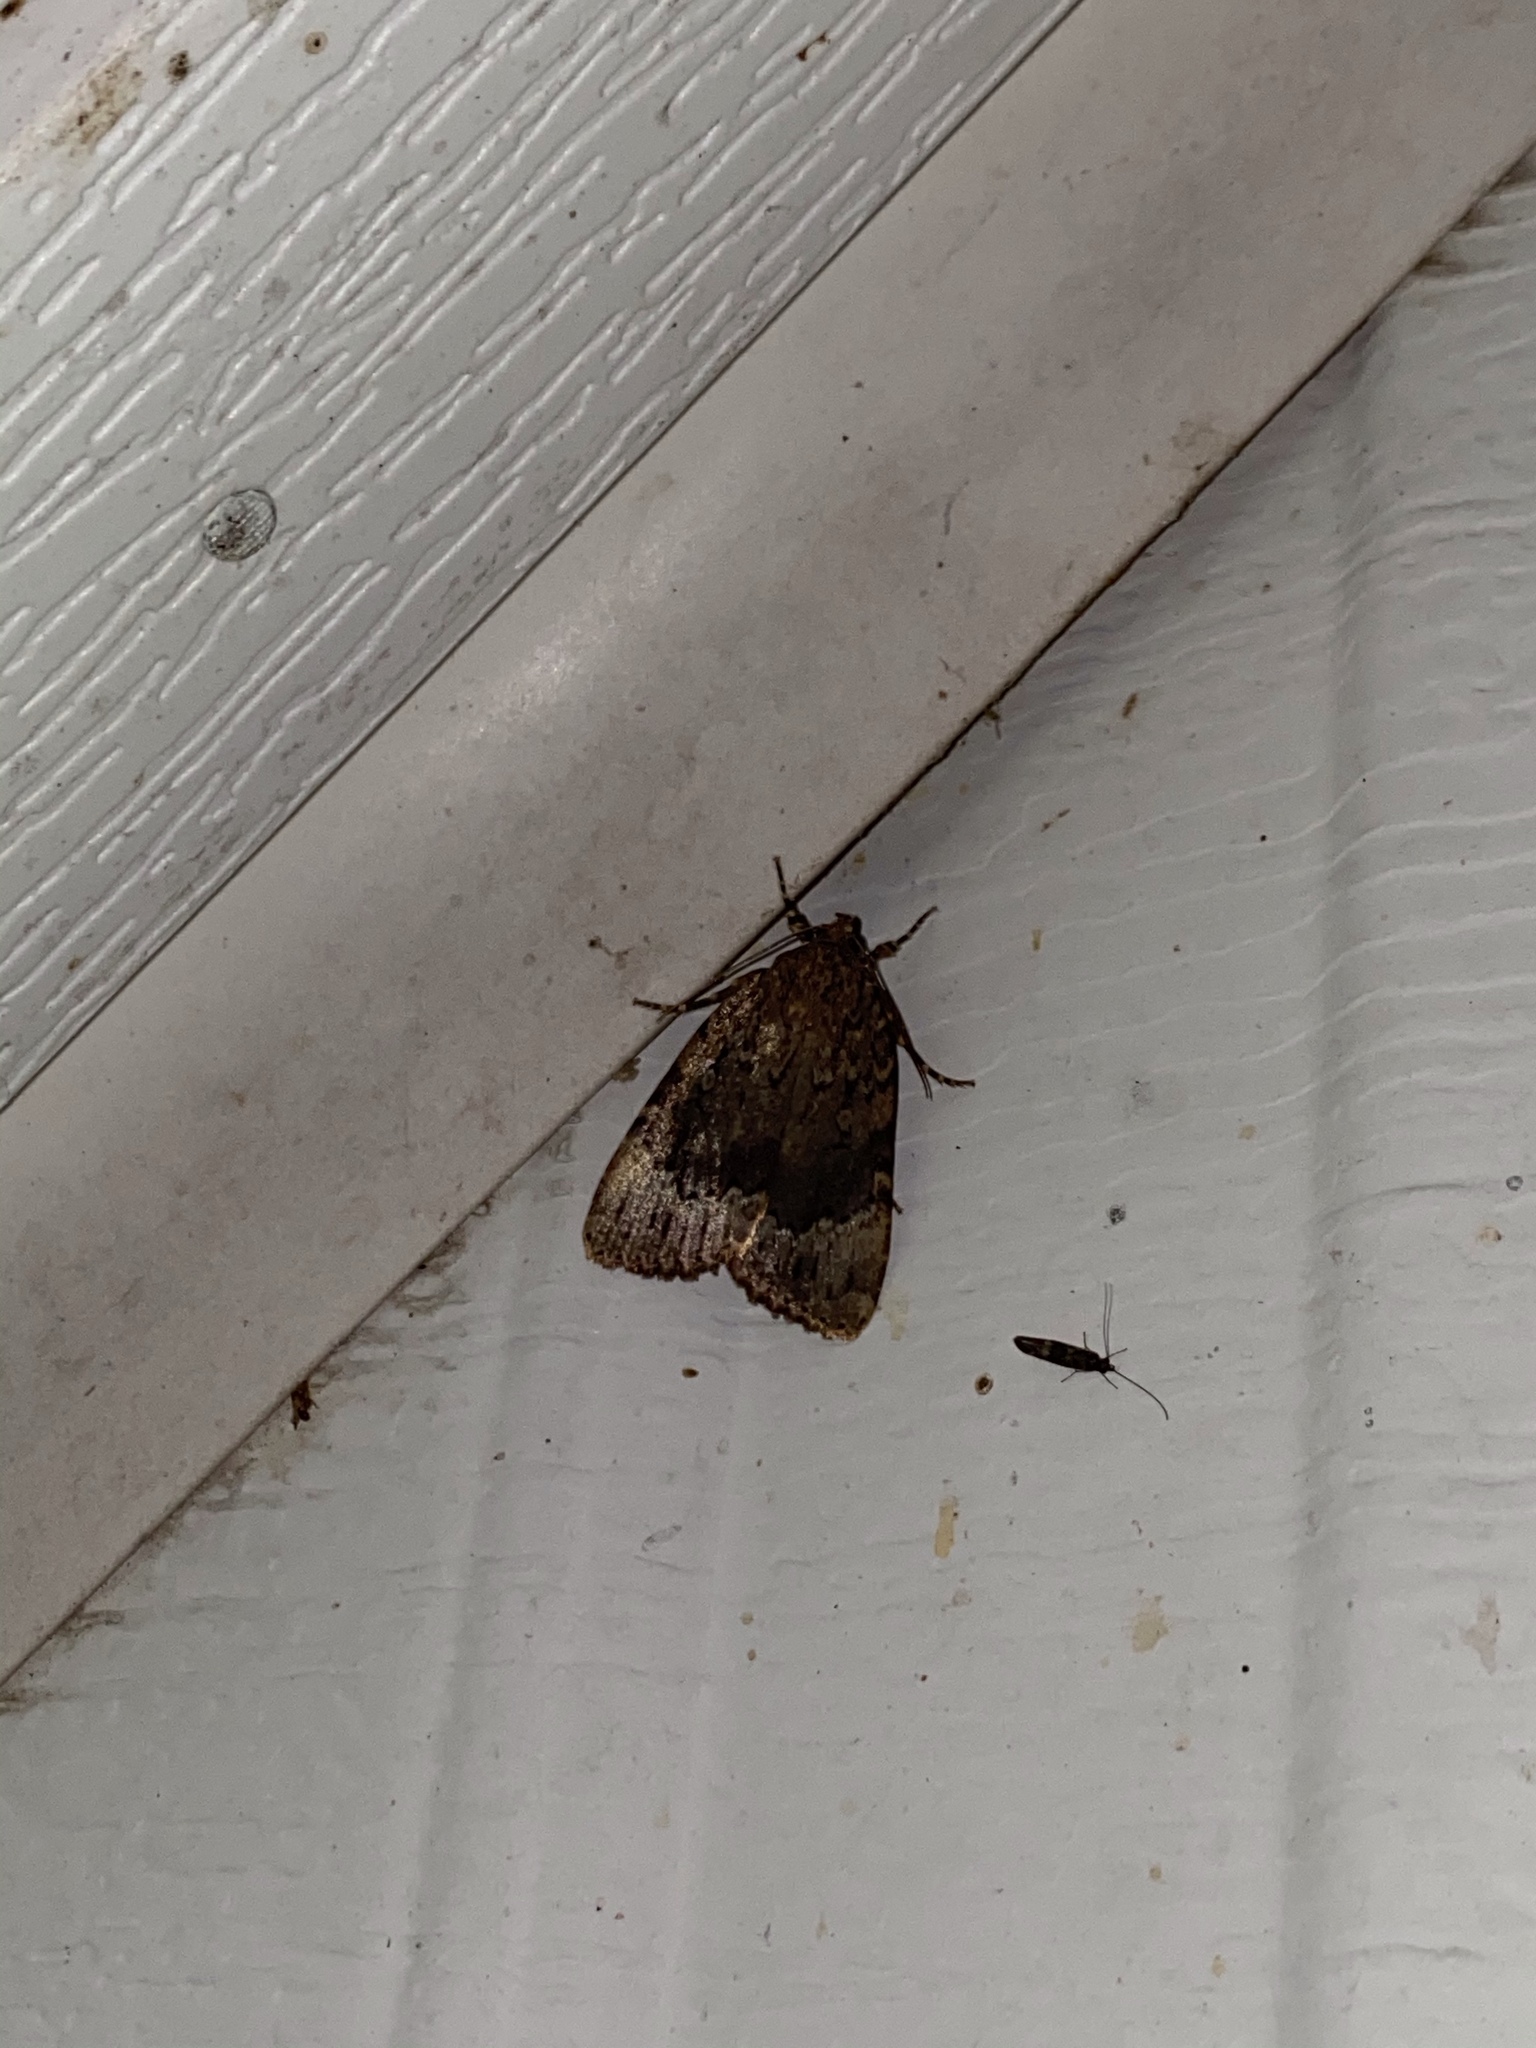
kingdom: Animalia
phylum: Arthropoda
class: Insecta
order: Lepidoptera
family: Noctuidae
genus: Amphipyra
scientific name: Amphipyra pyramidoides
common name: American copper underwing
